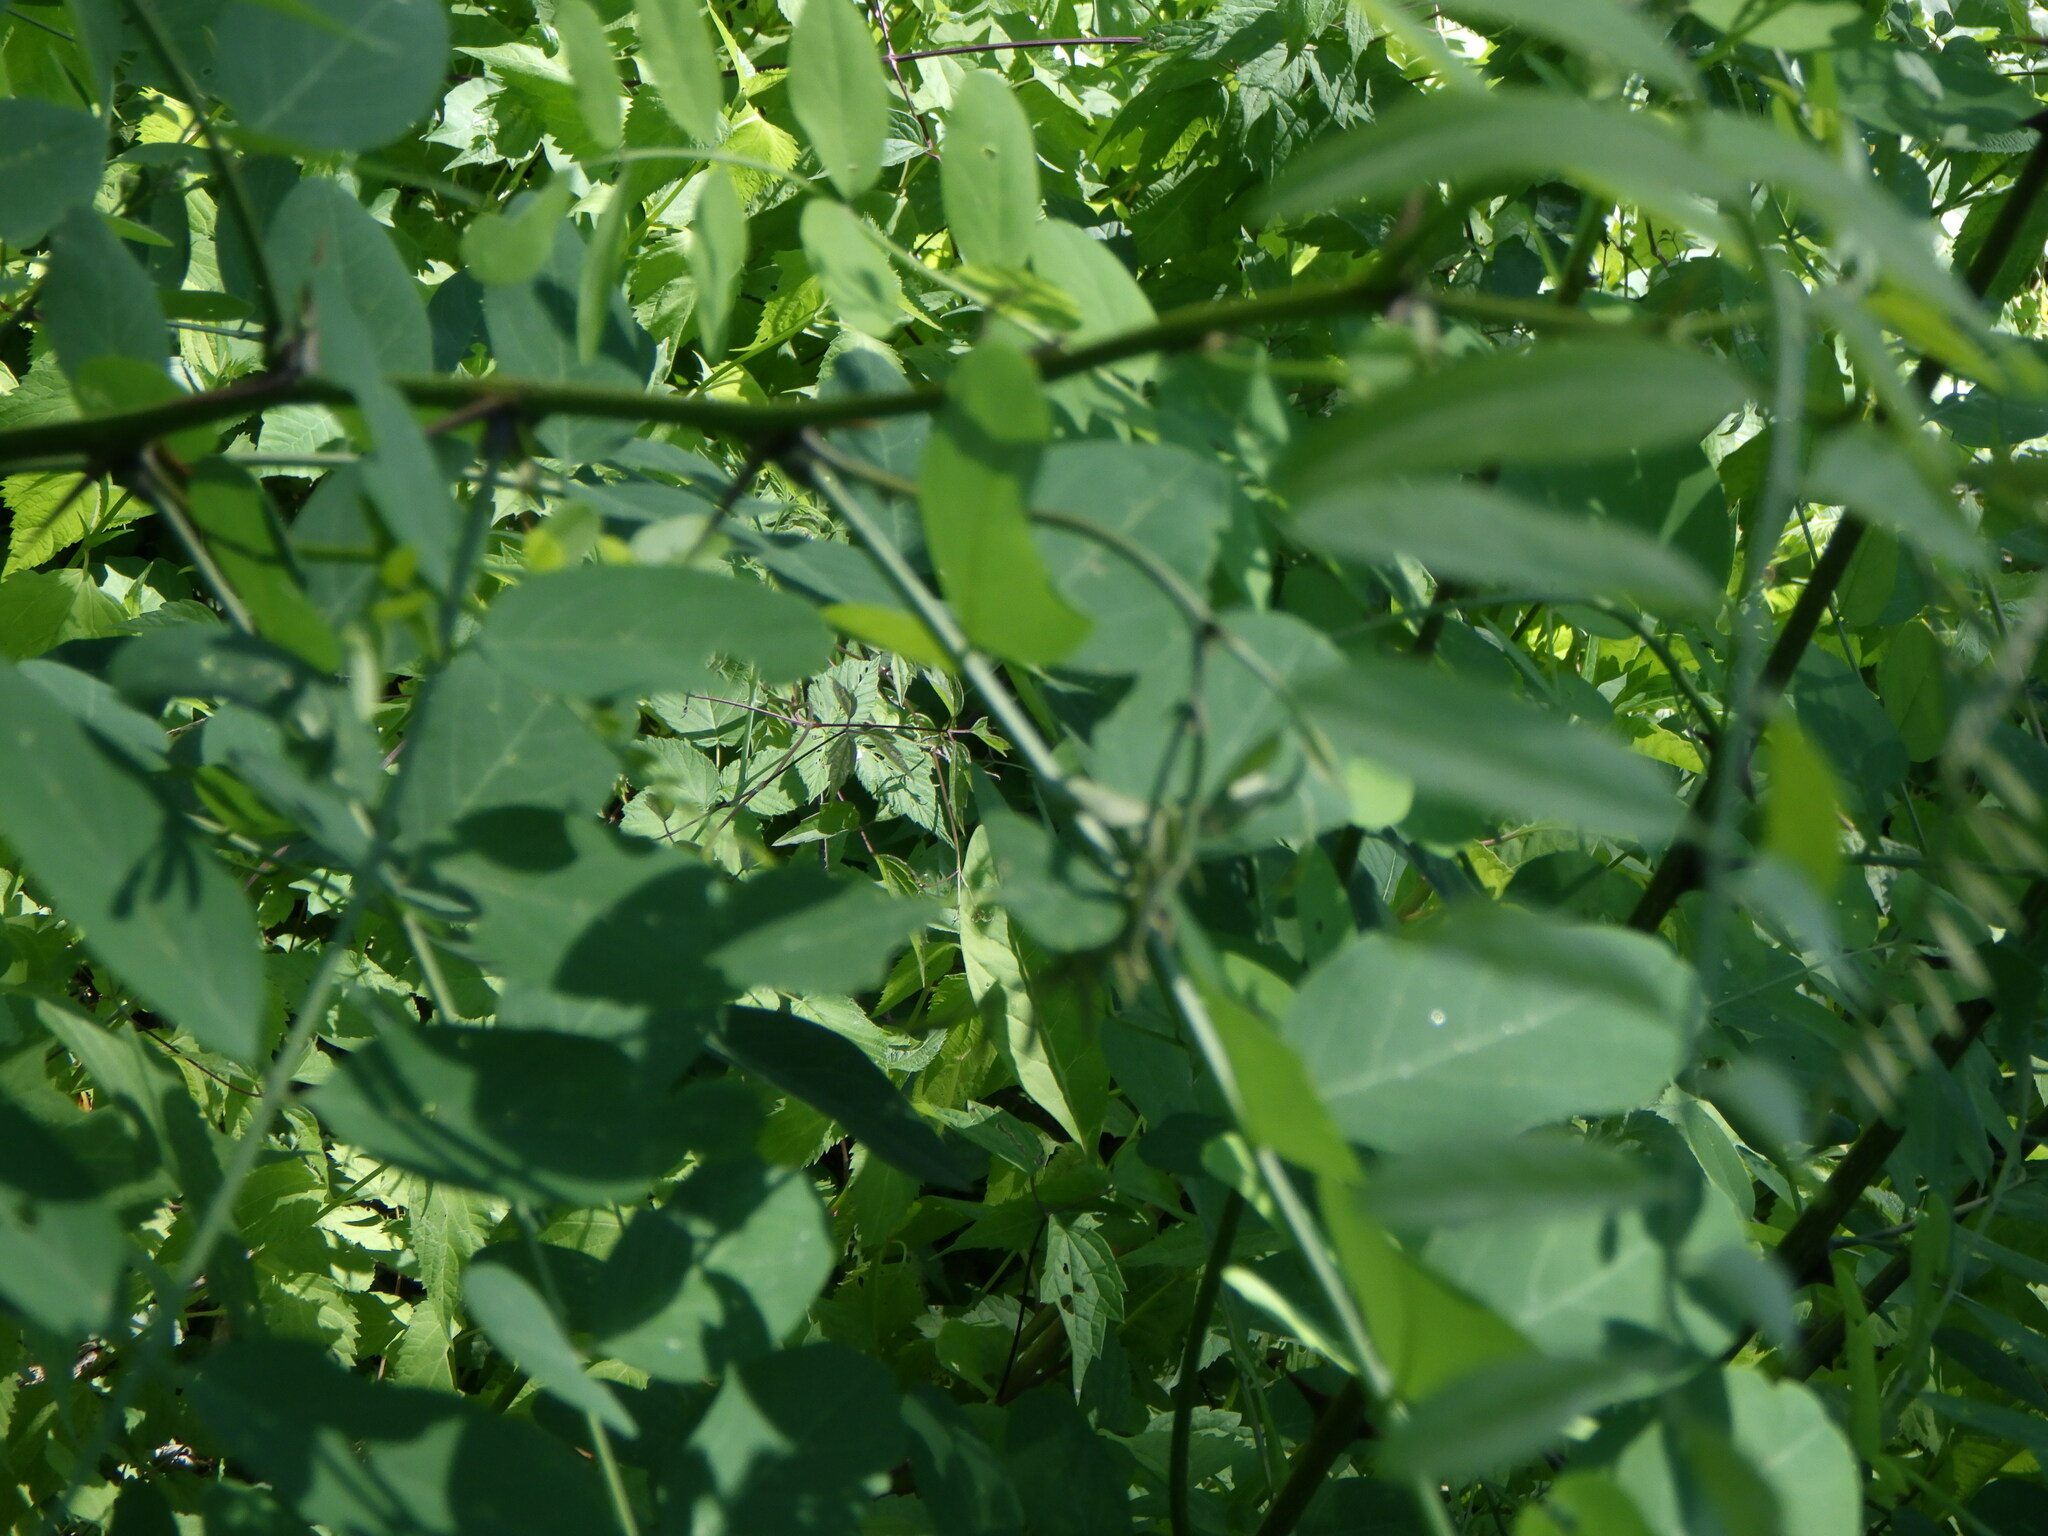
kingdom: Plantae
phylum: Tracheophyta
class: Magnoliopsida
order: Fabales
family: Fabaceae
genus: Robinia
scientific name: Robinia pseudoacacia
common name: Black locust
